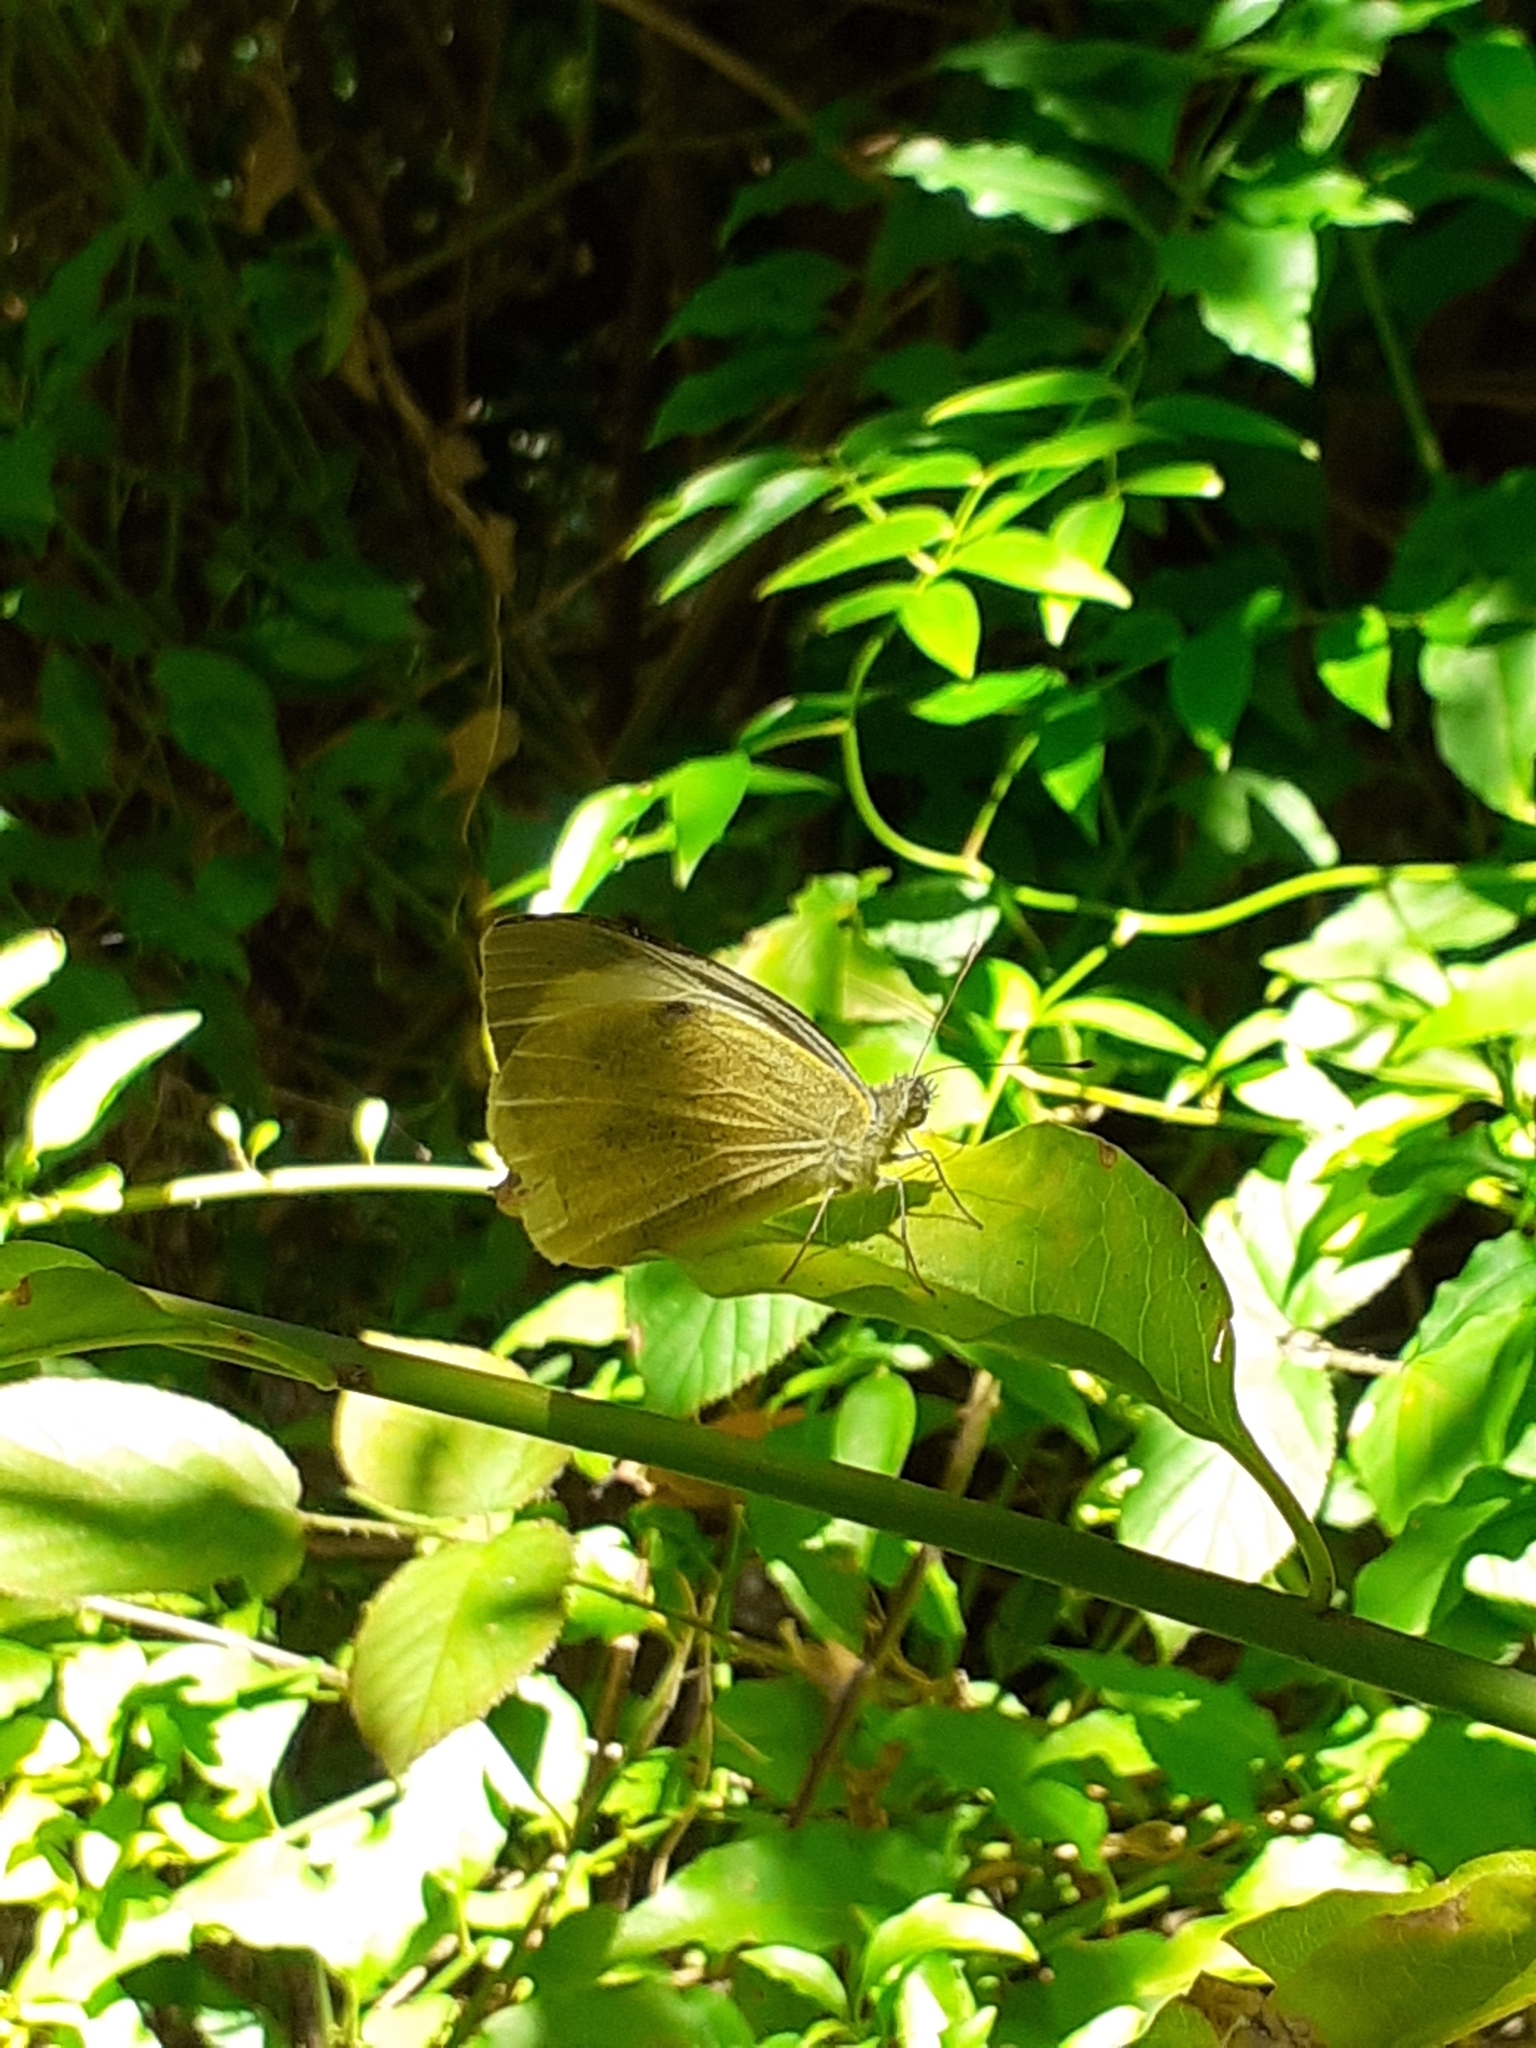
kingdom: Animalia
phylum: Arthropoda
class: Insecta
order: Lepidoptera
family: Pieridae
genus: Pieris
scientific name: Pieris cheiranthi
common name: Canary islands large white
